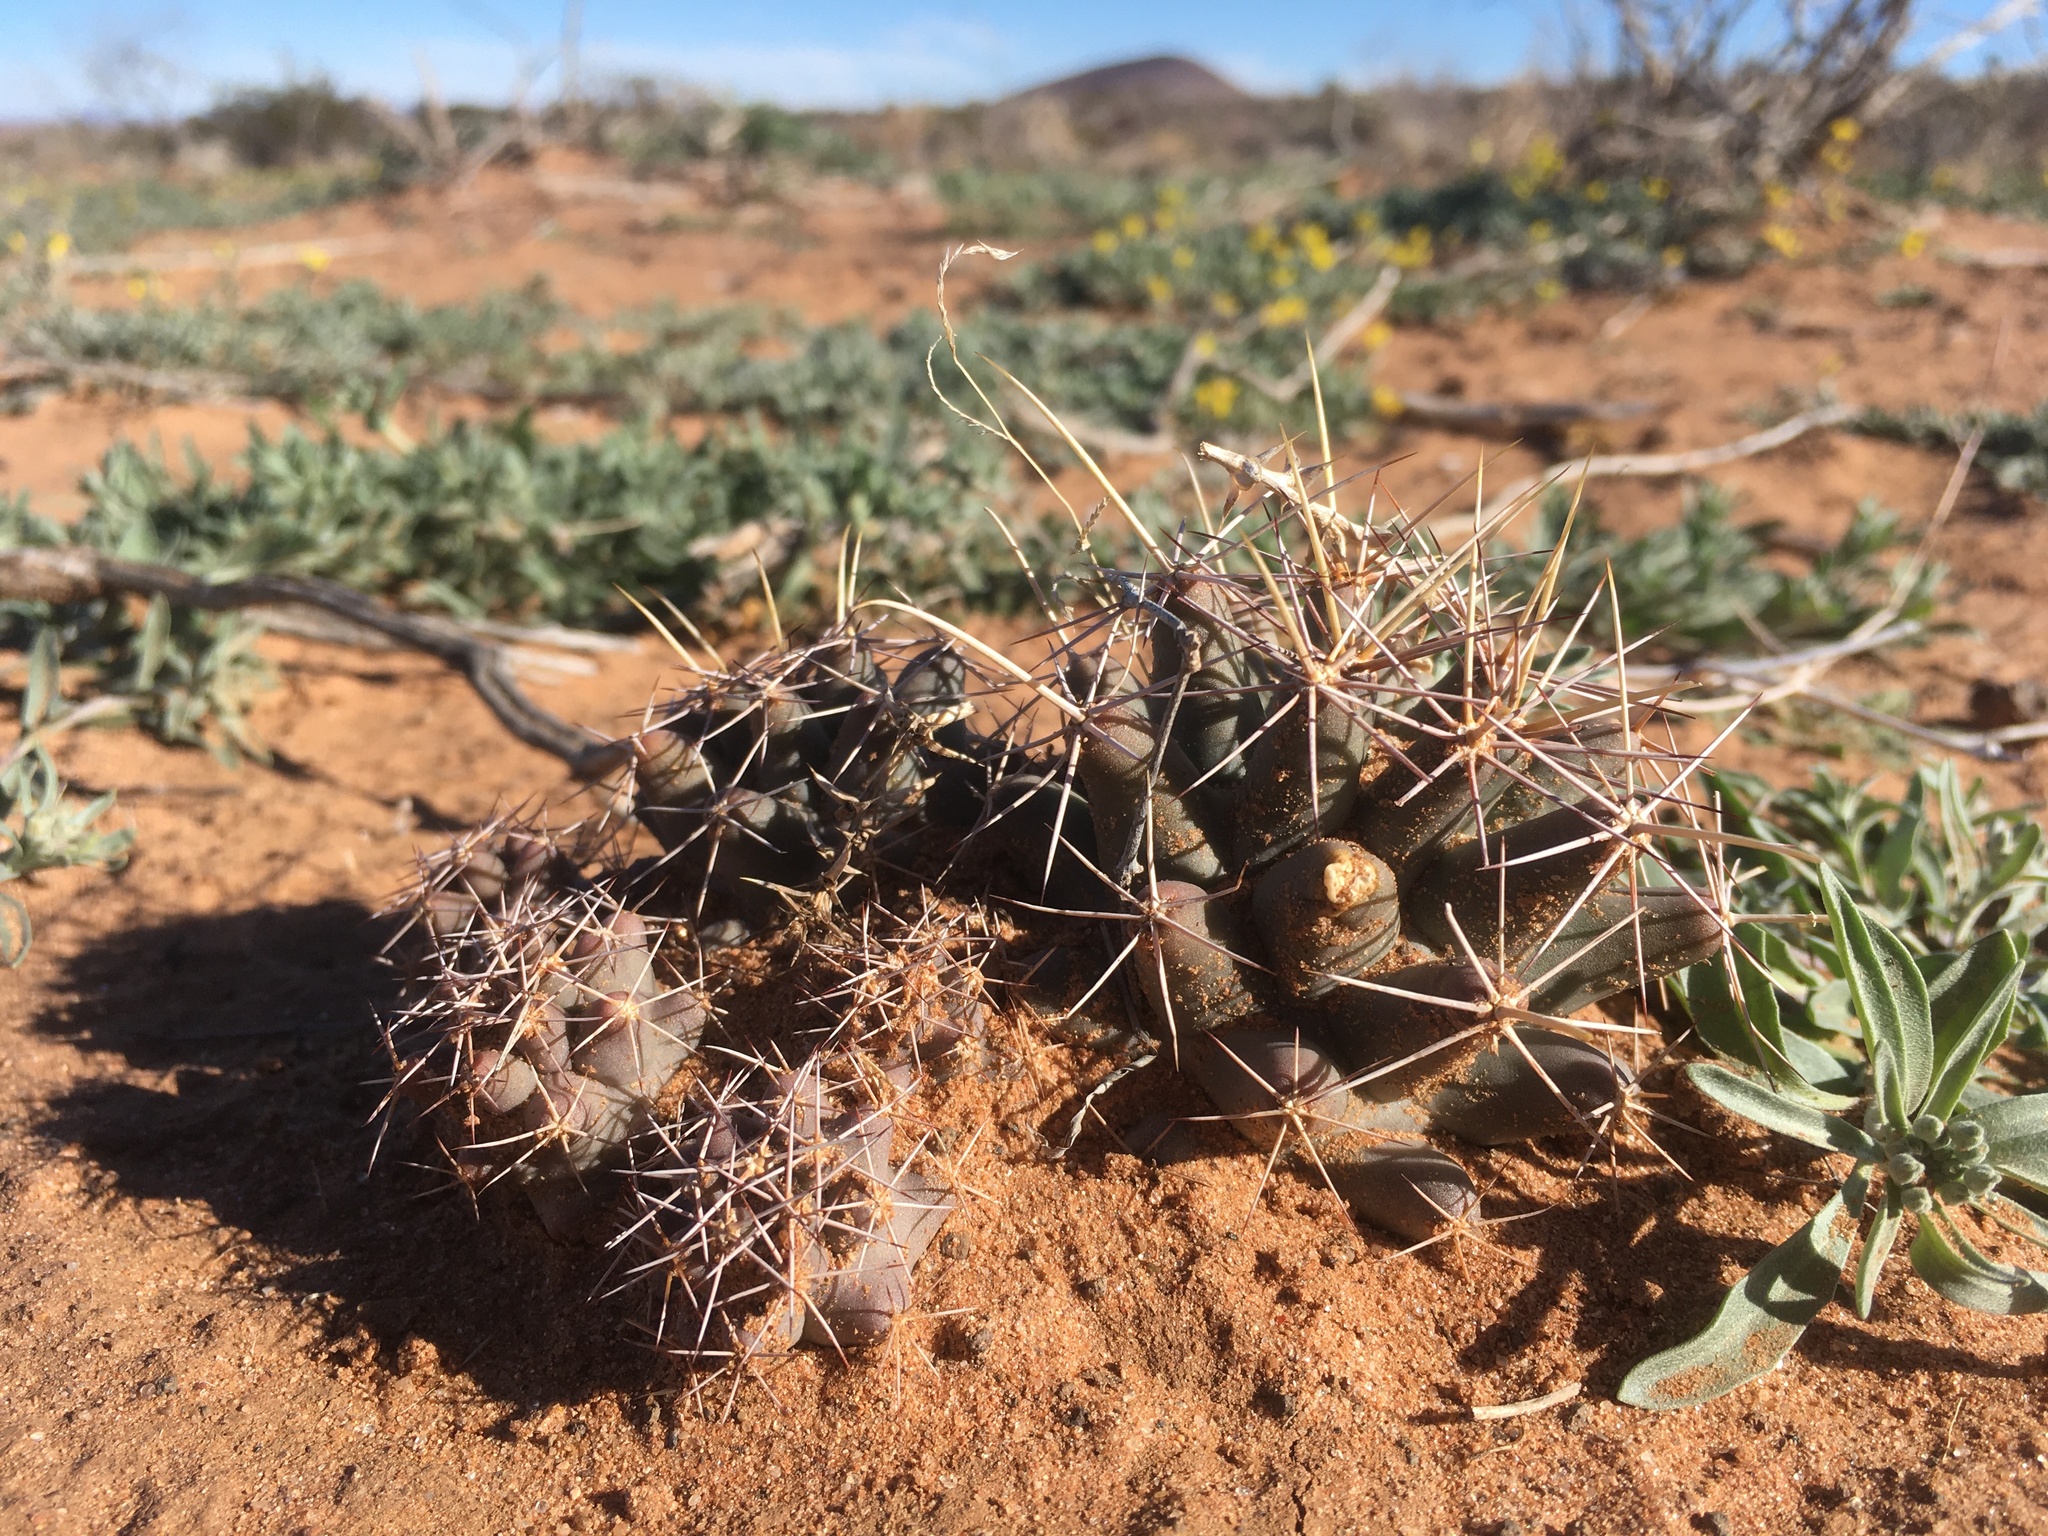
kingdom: Plantae
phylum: Tracheophyta
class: Magnoliopsida
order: Caryophyllales
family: Cactaceae
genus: Coryphantha
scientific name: Coryphantha robustispina
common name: Pima pineapple cactus
